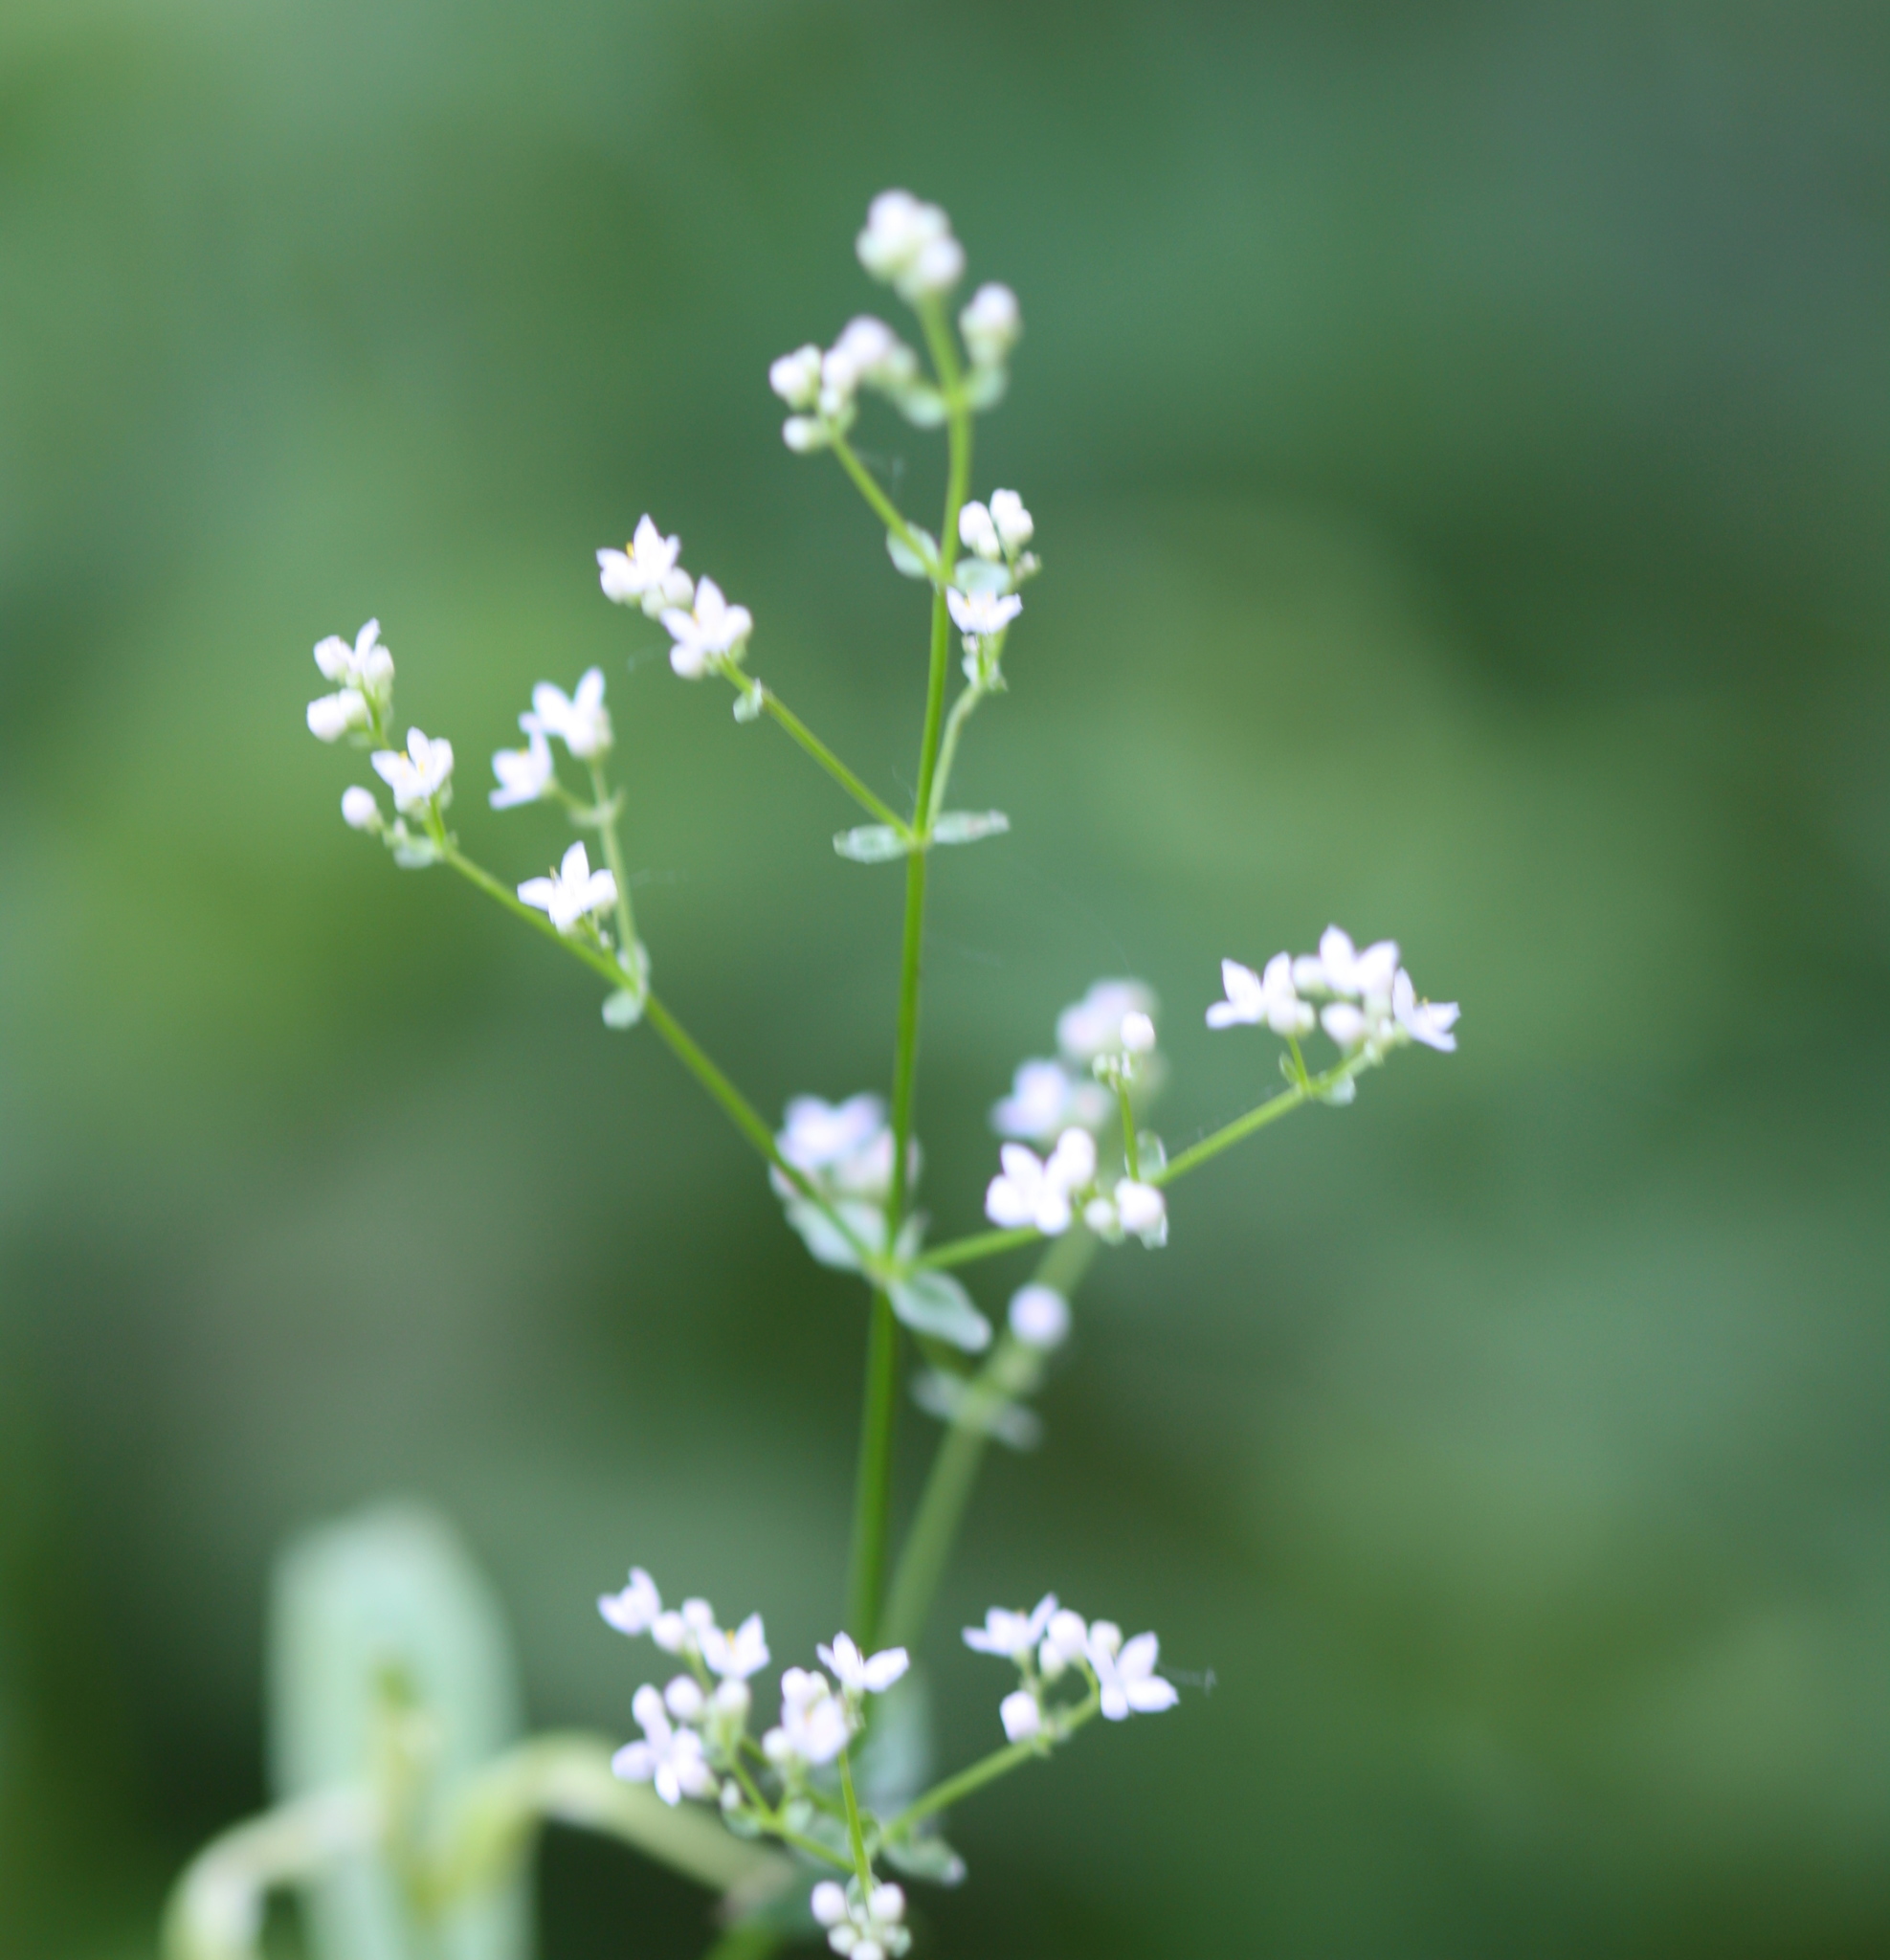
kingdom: Plantae
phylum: Tracheophyta
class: Magnoliopsida
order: Gentianales
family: Rubiaceae
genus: Galium
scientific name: Galium boreale
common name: Northern bedstraw
